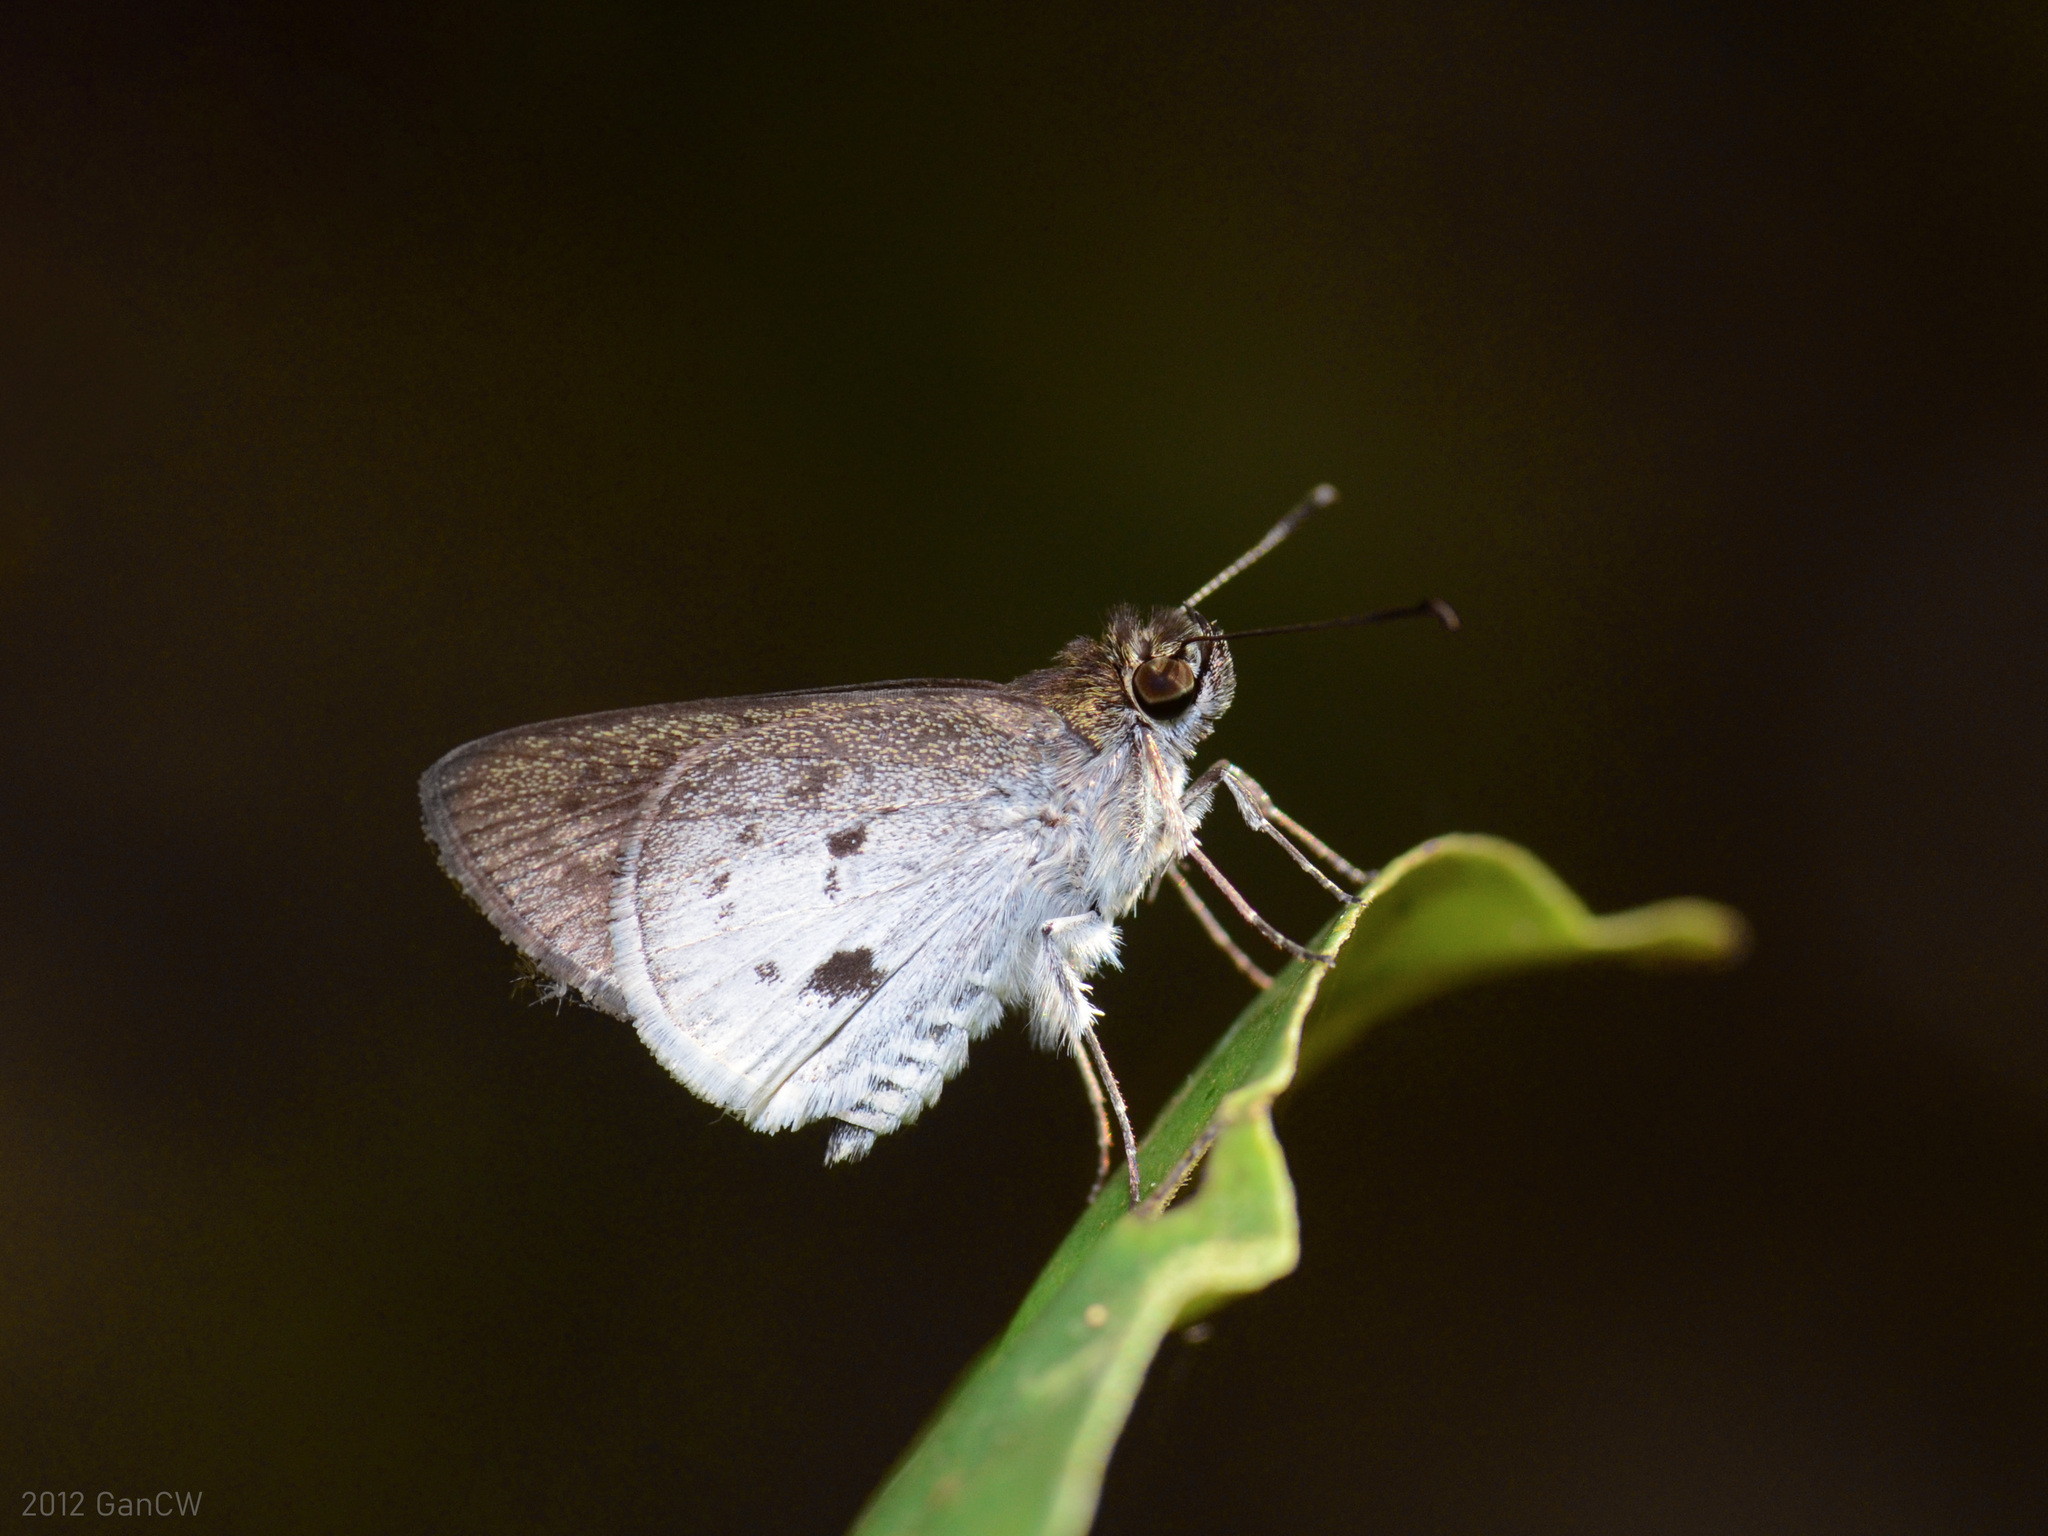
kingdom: Animalia
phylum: Arthropoda
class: Insecta
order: Lepidoptera
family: Hesperiidae
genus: Suastus
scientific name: Suastus everyx
